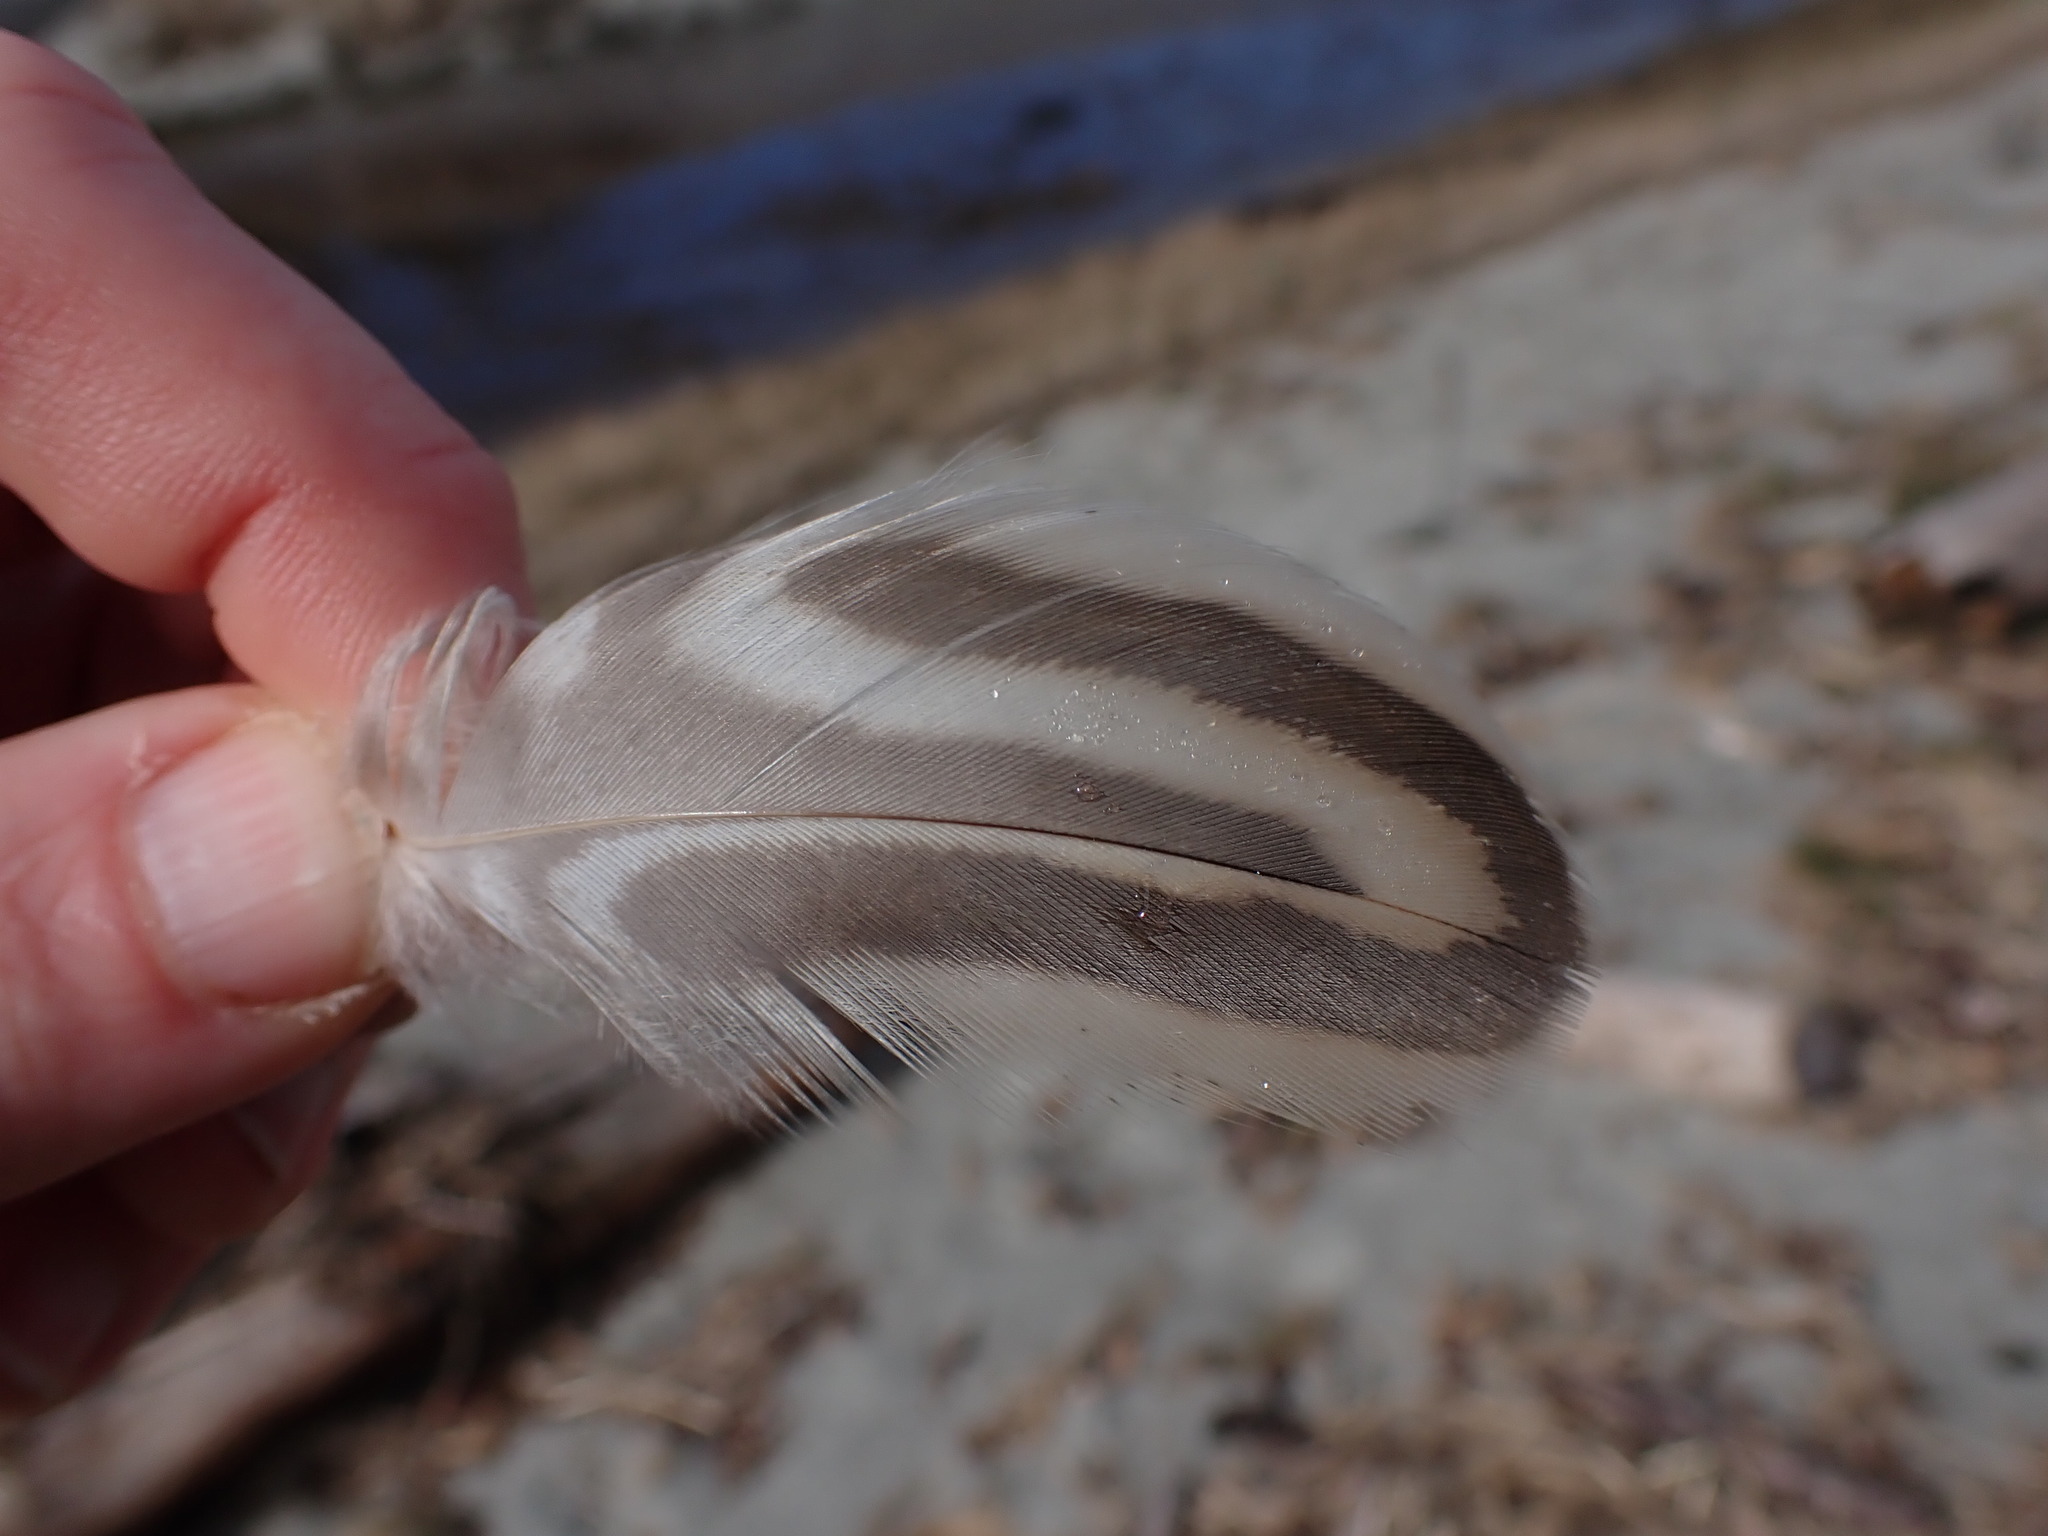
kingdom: Animalia
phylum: Chordata
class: Aves
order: Anseriformes
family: Anatidae
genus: Anas
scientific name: Anas platyrhynchos
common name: Mallard
